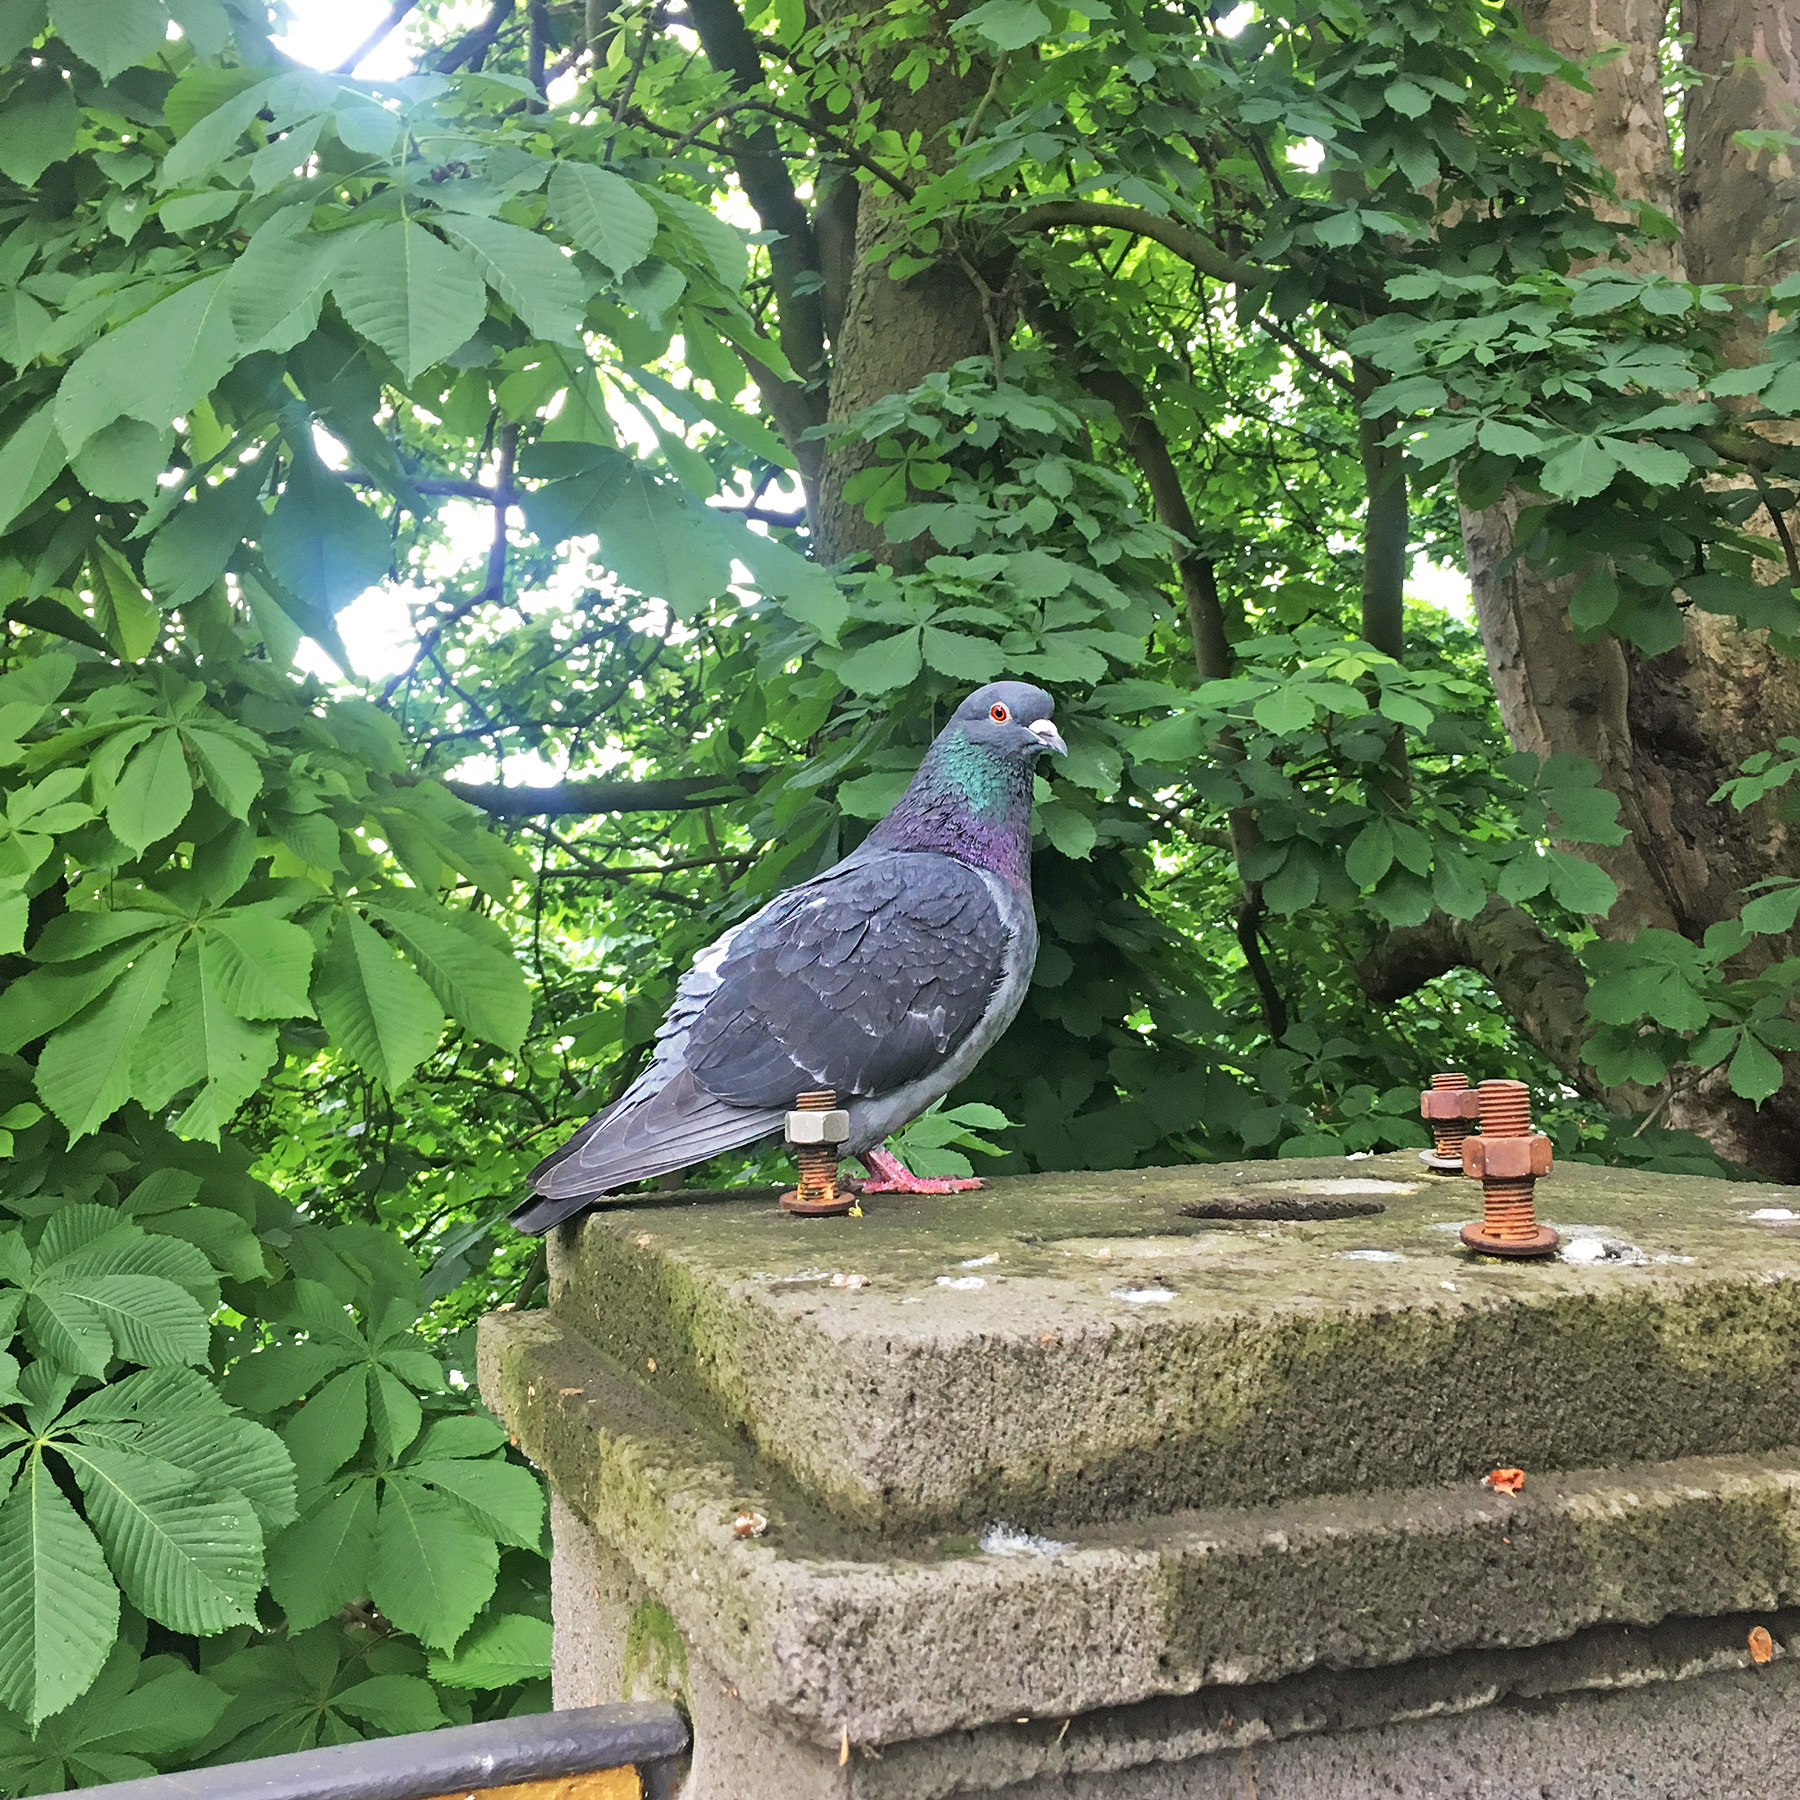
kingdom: Animalia
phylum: Chordata
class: Aves
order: Columbiformes
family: Columbidae
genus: Columba
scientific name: Columba livia
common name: Rock pigeon
